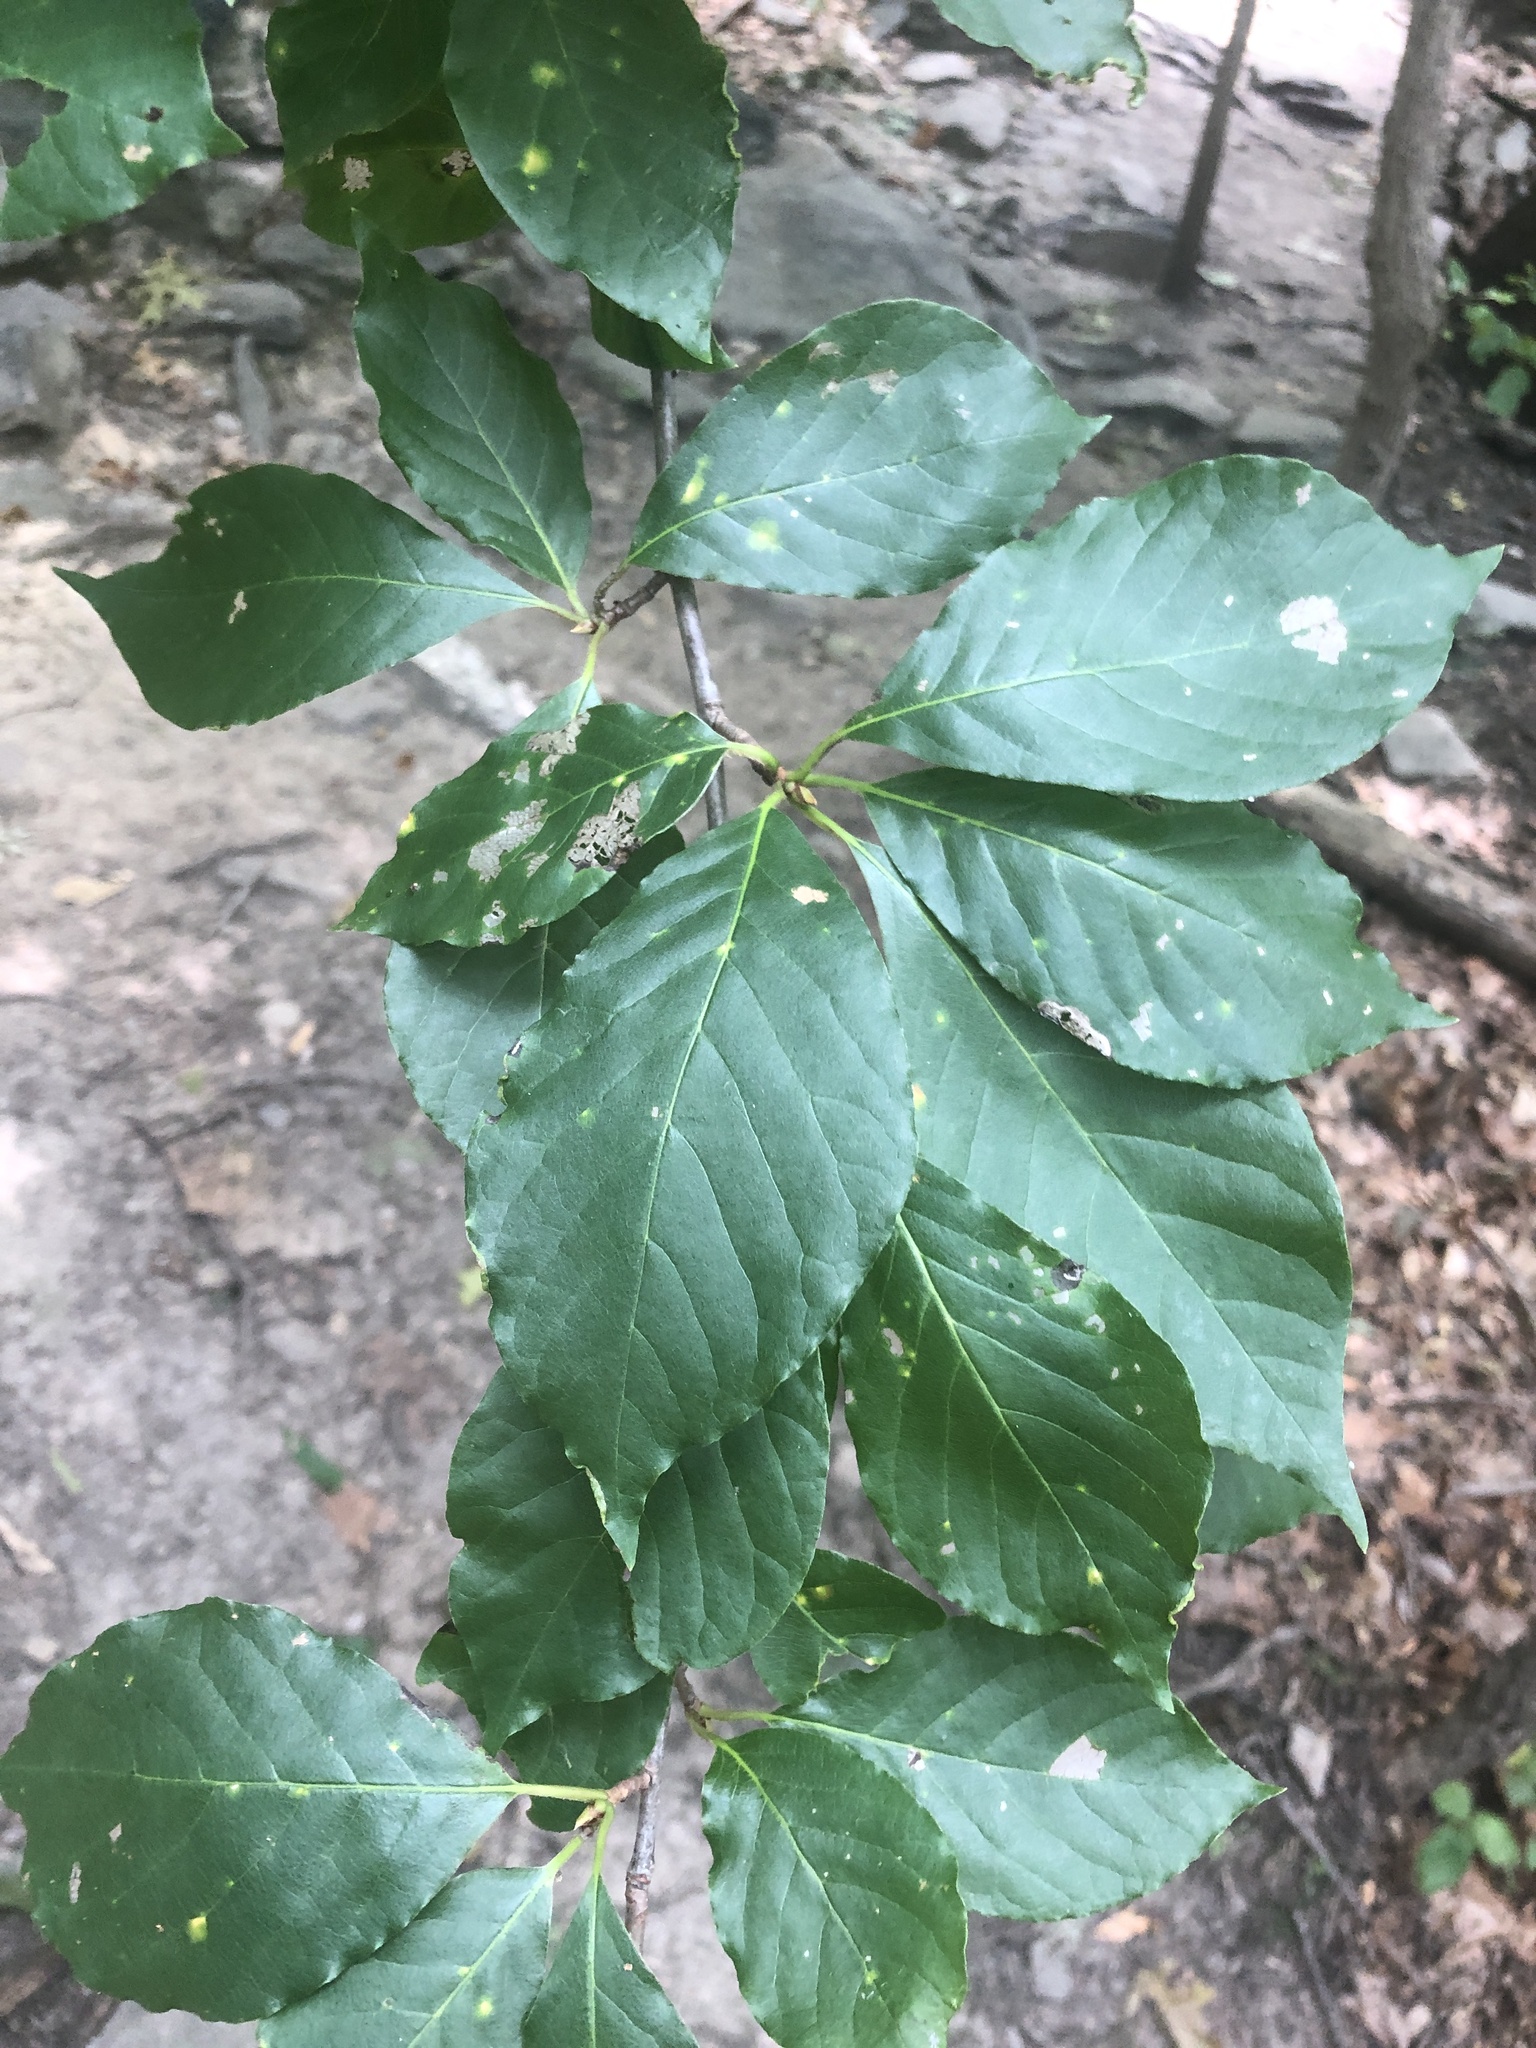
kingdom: Plantae
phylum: Tracheophyta
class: Magnoliopsida
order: Cornales
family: Nyssaceae
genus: Nyssa
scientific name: Nyssa sylvatica
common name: Black tupelo
